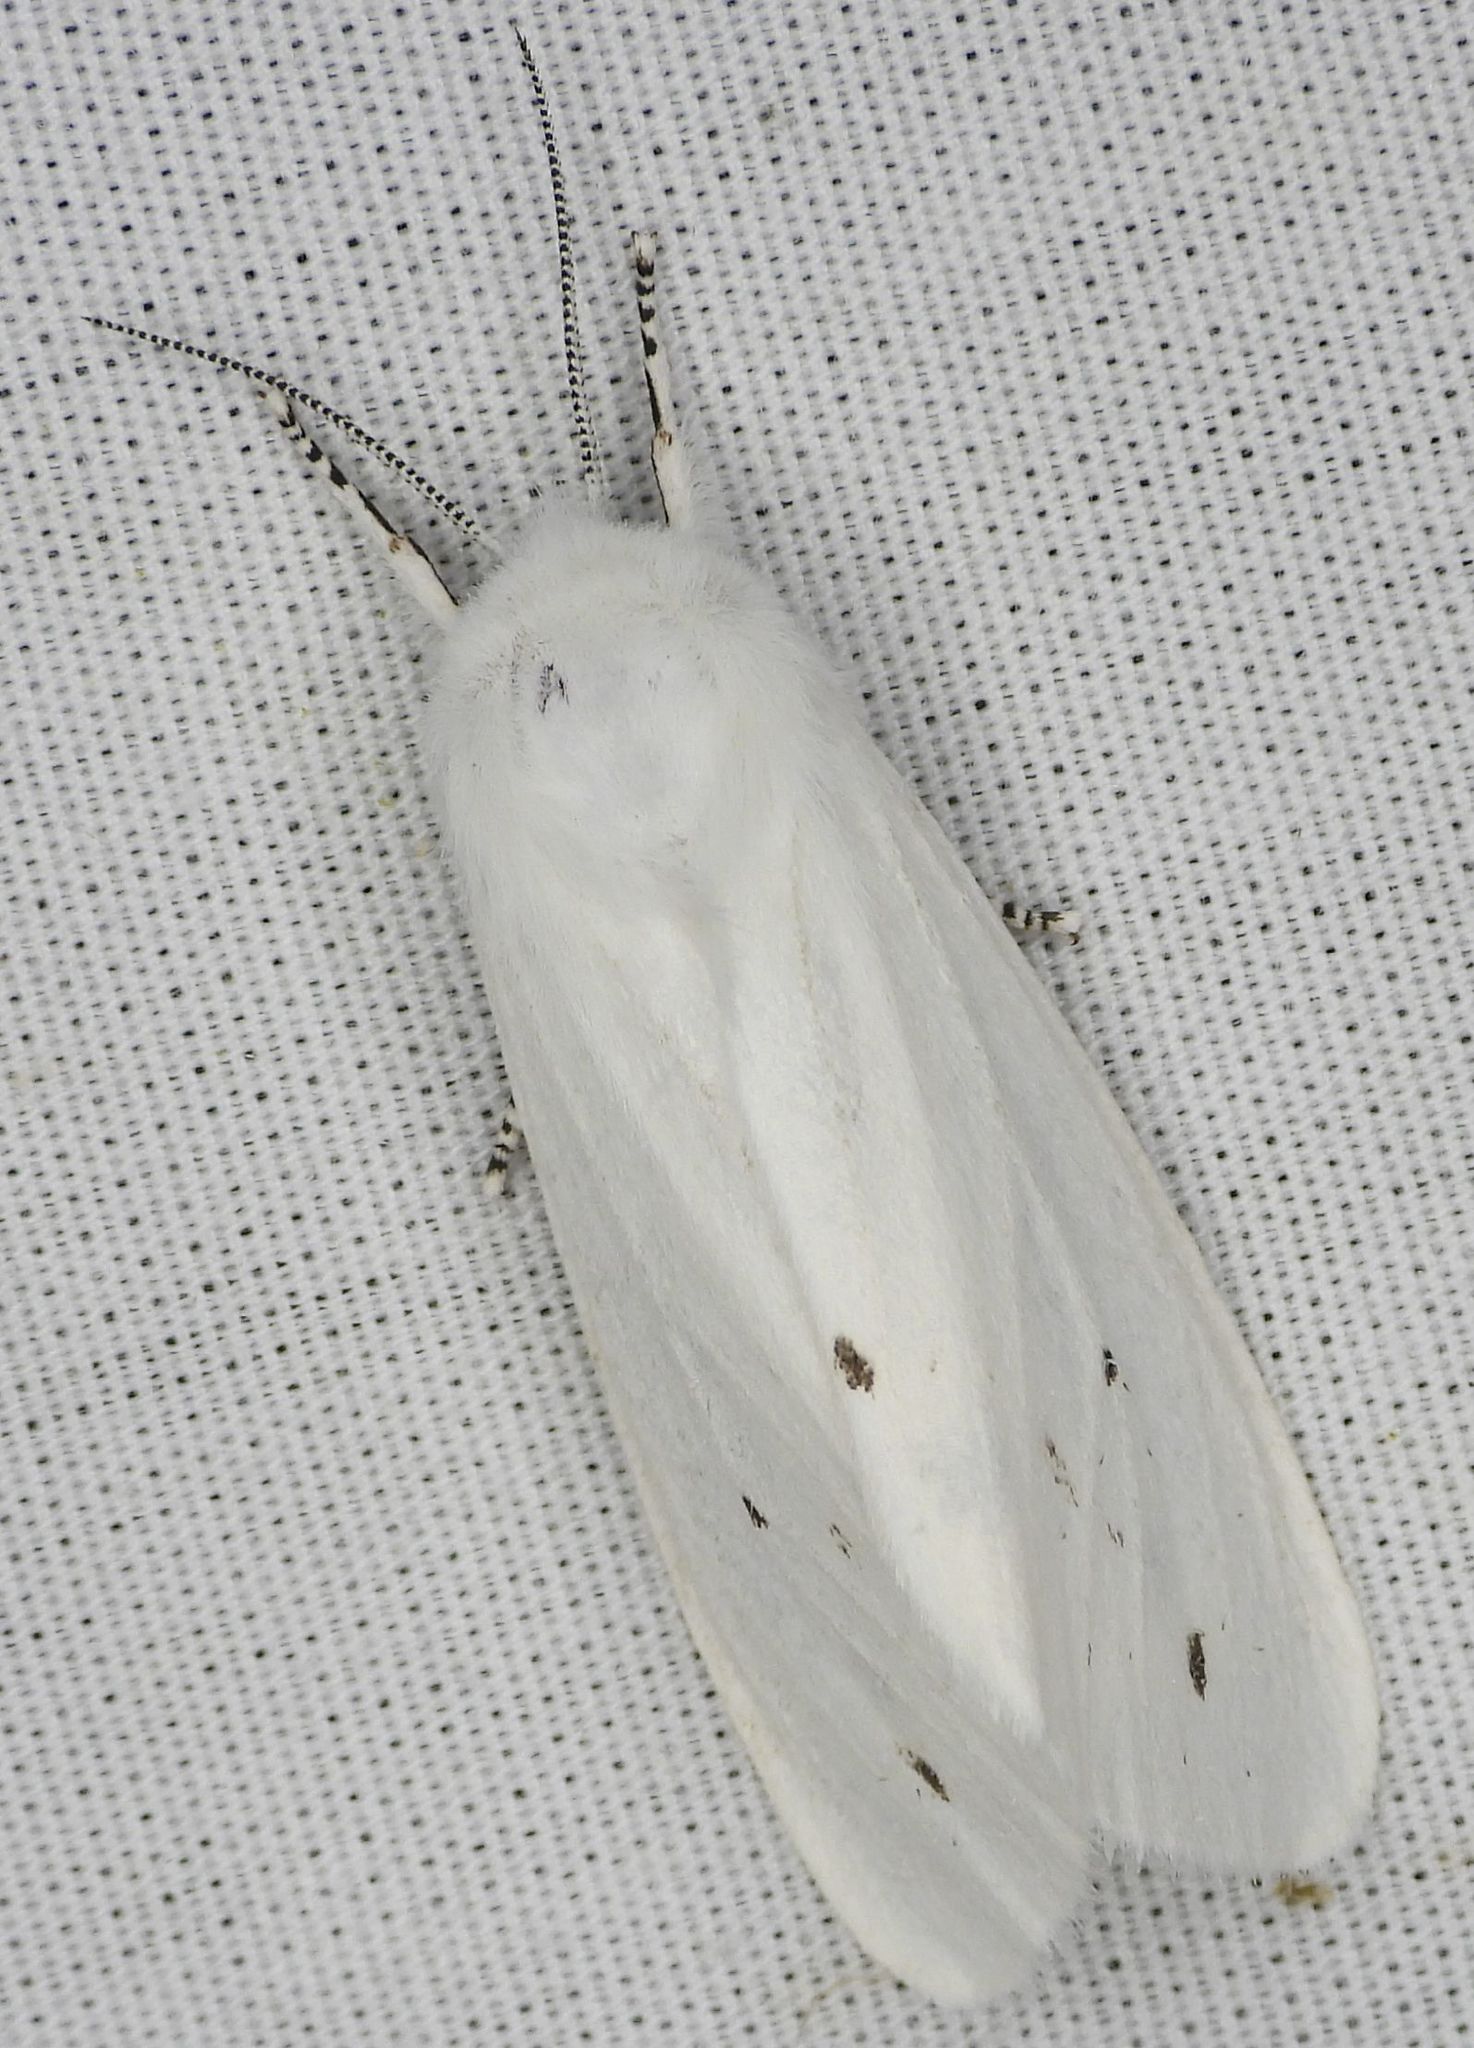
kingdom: Animalia
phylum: Arthropoda
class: Insecta
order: Lepidoptera
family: Erebidae
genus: Spilosoma
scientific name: Spilosoma virginica
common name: Virginia tiger moth
